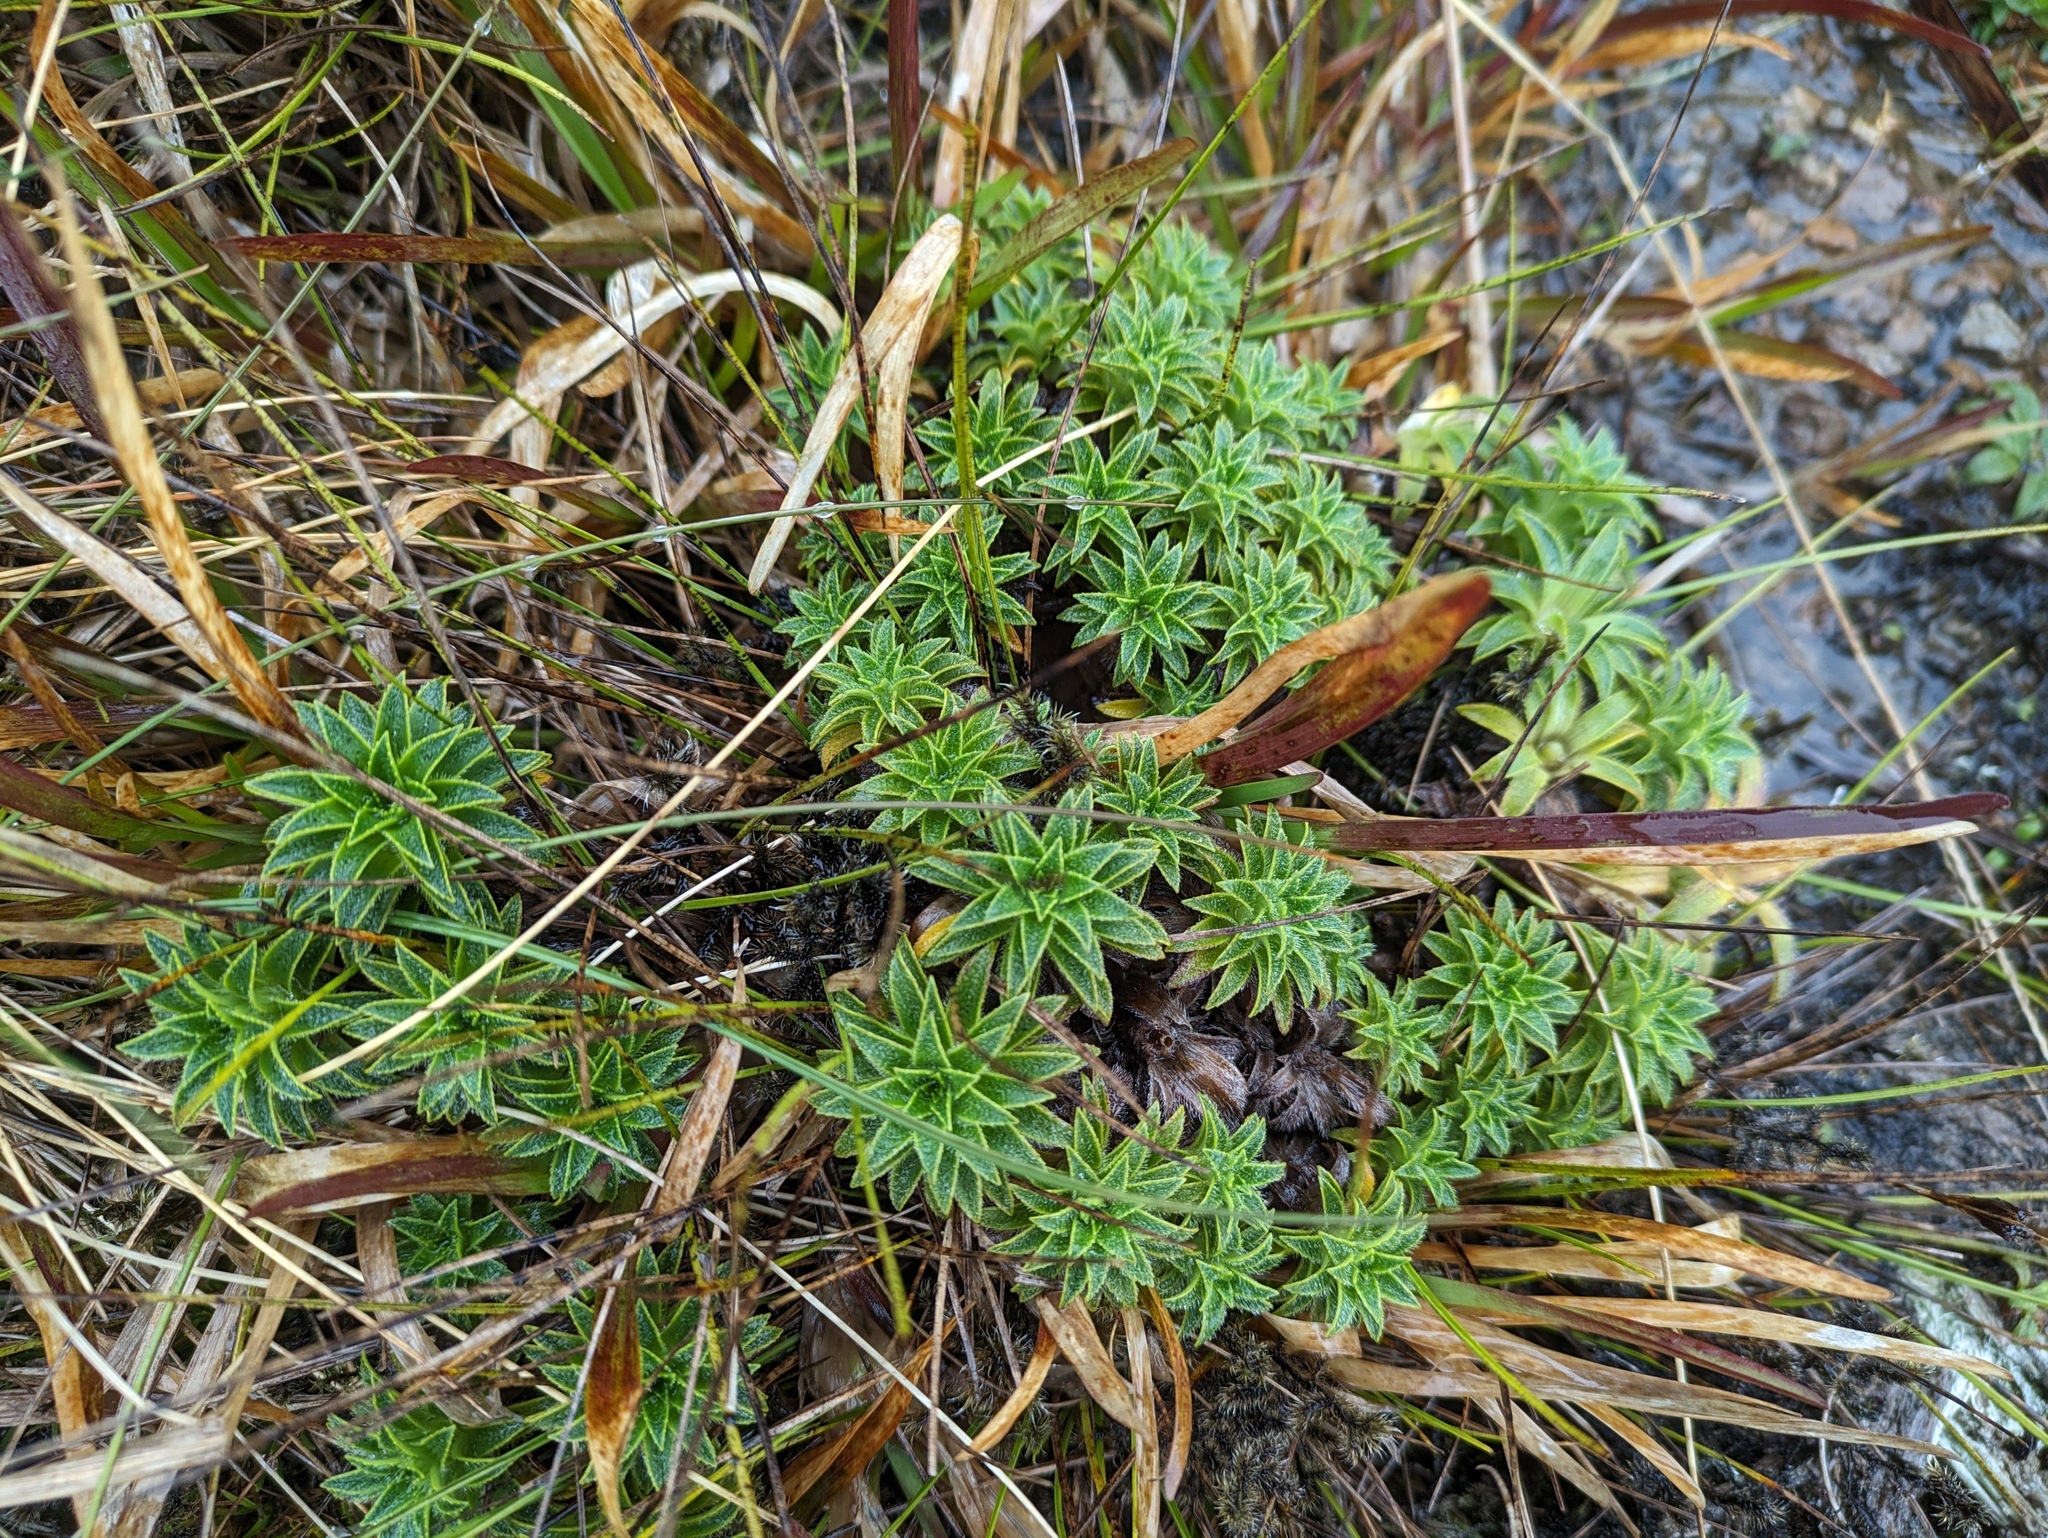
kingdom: Plantae
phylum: Tracheophyta
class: Magnoliopsida
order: Asterales
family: Asteraceae
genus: Dubautia
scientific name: Dubautia waialealae
